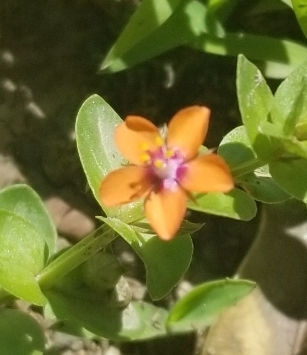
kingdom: Plantae
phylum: Tracheophyta
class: Magnoliopsida
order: Ericales
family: Primulaceae
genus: Lysimachia
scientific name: Lysimachia arvensis
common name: Scarlet pimpernel
